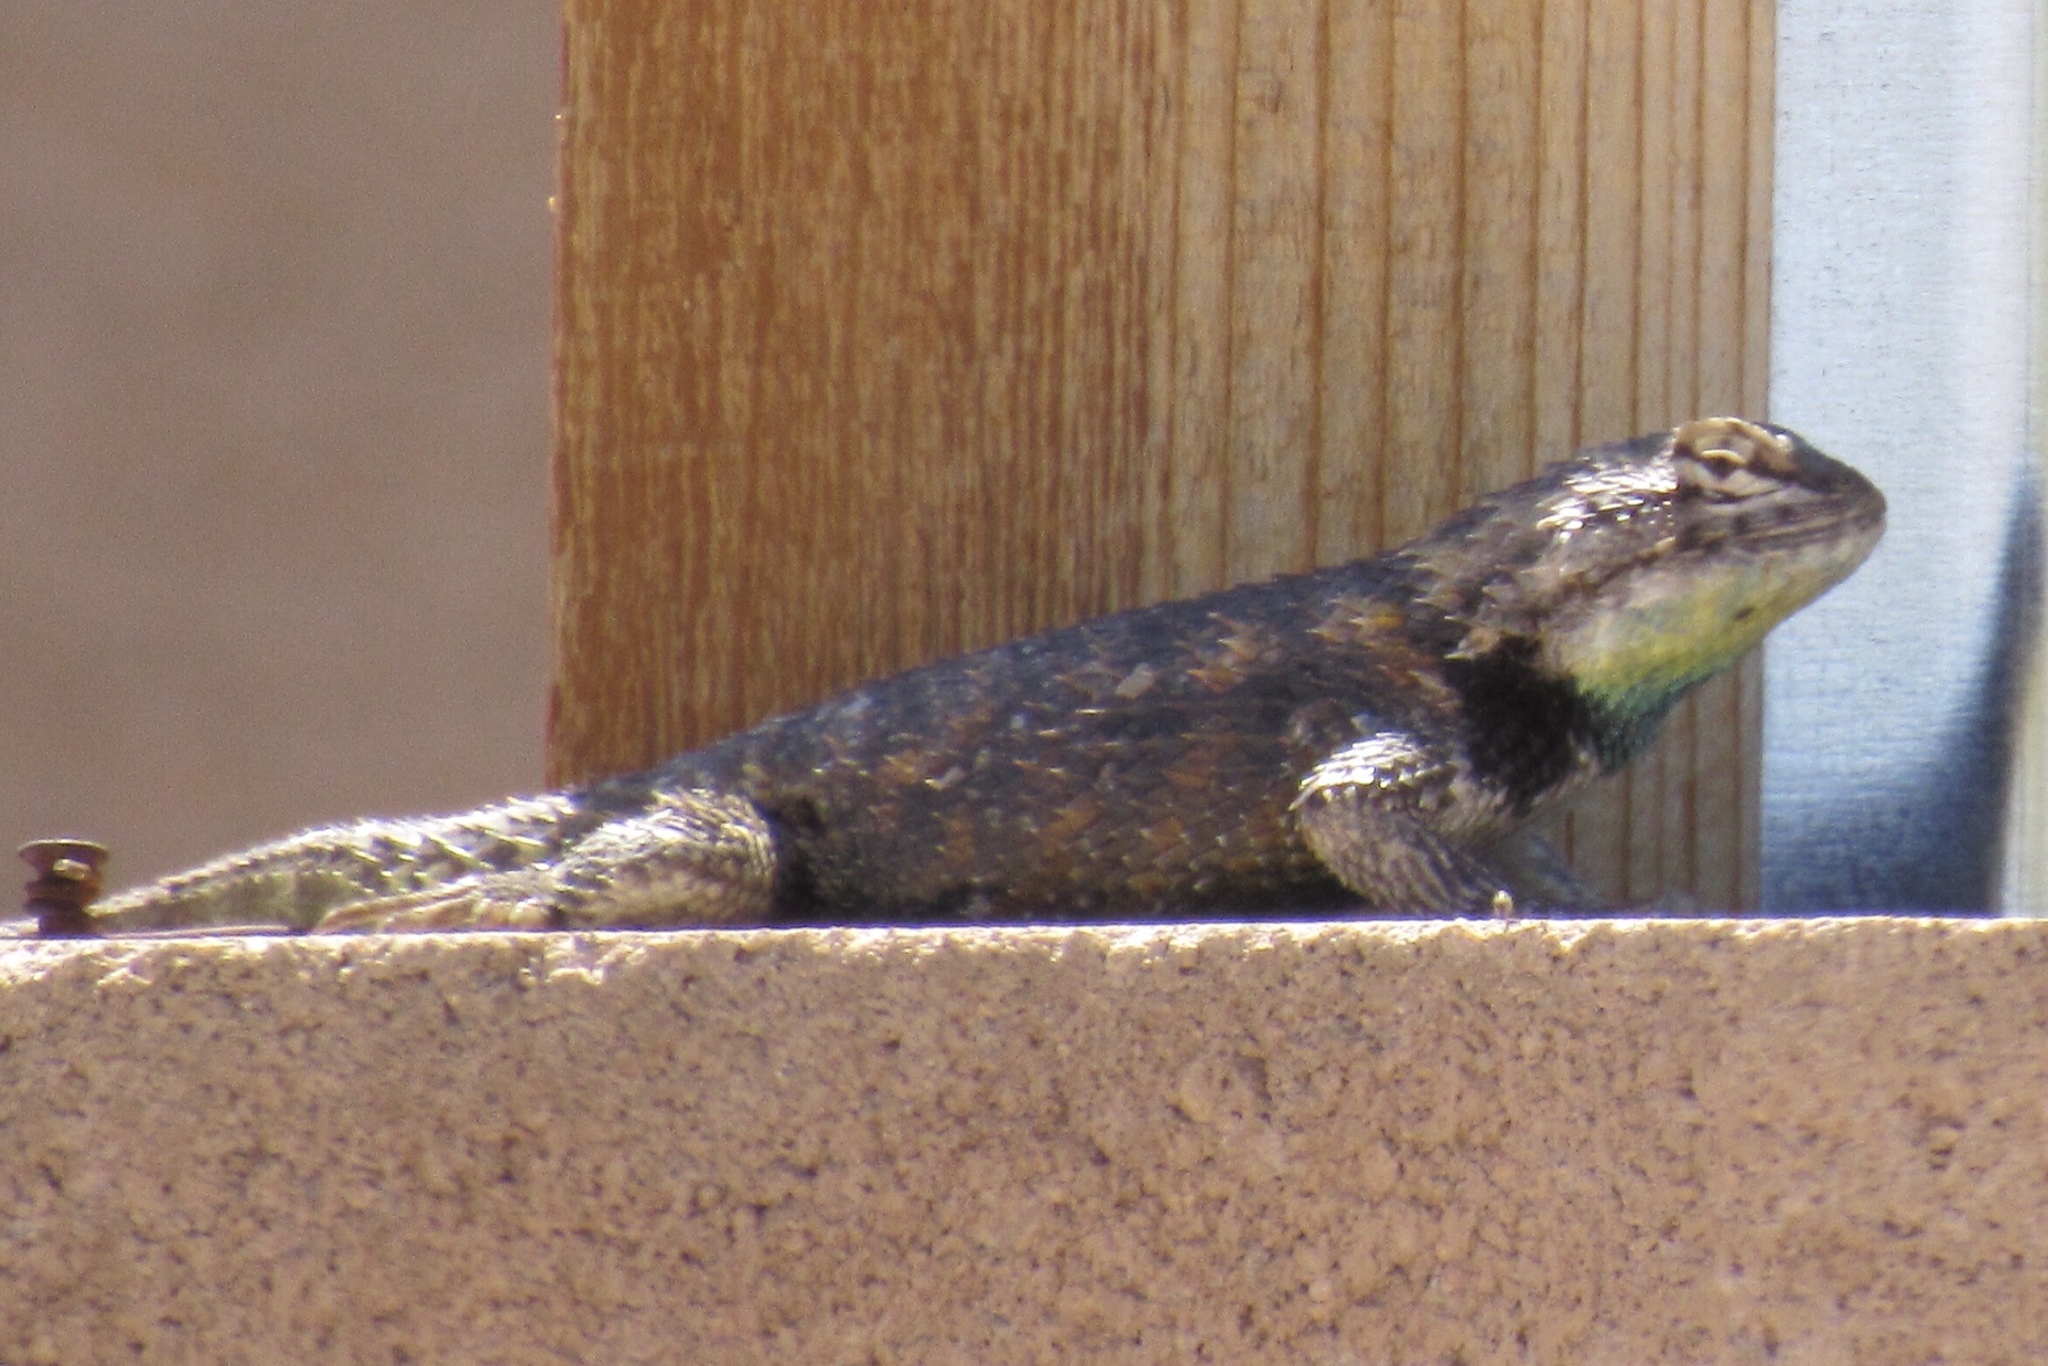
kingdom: Animalia
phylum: Chordata
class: Squamata
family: Phrynosomatidae
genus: Sceloporus
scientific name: Sceloporus magister
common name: Desert spiny lizard
